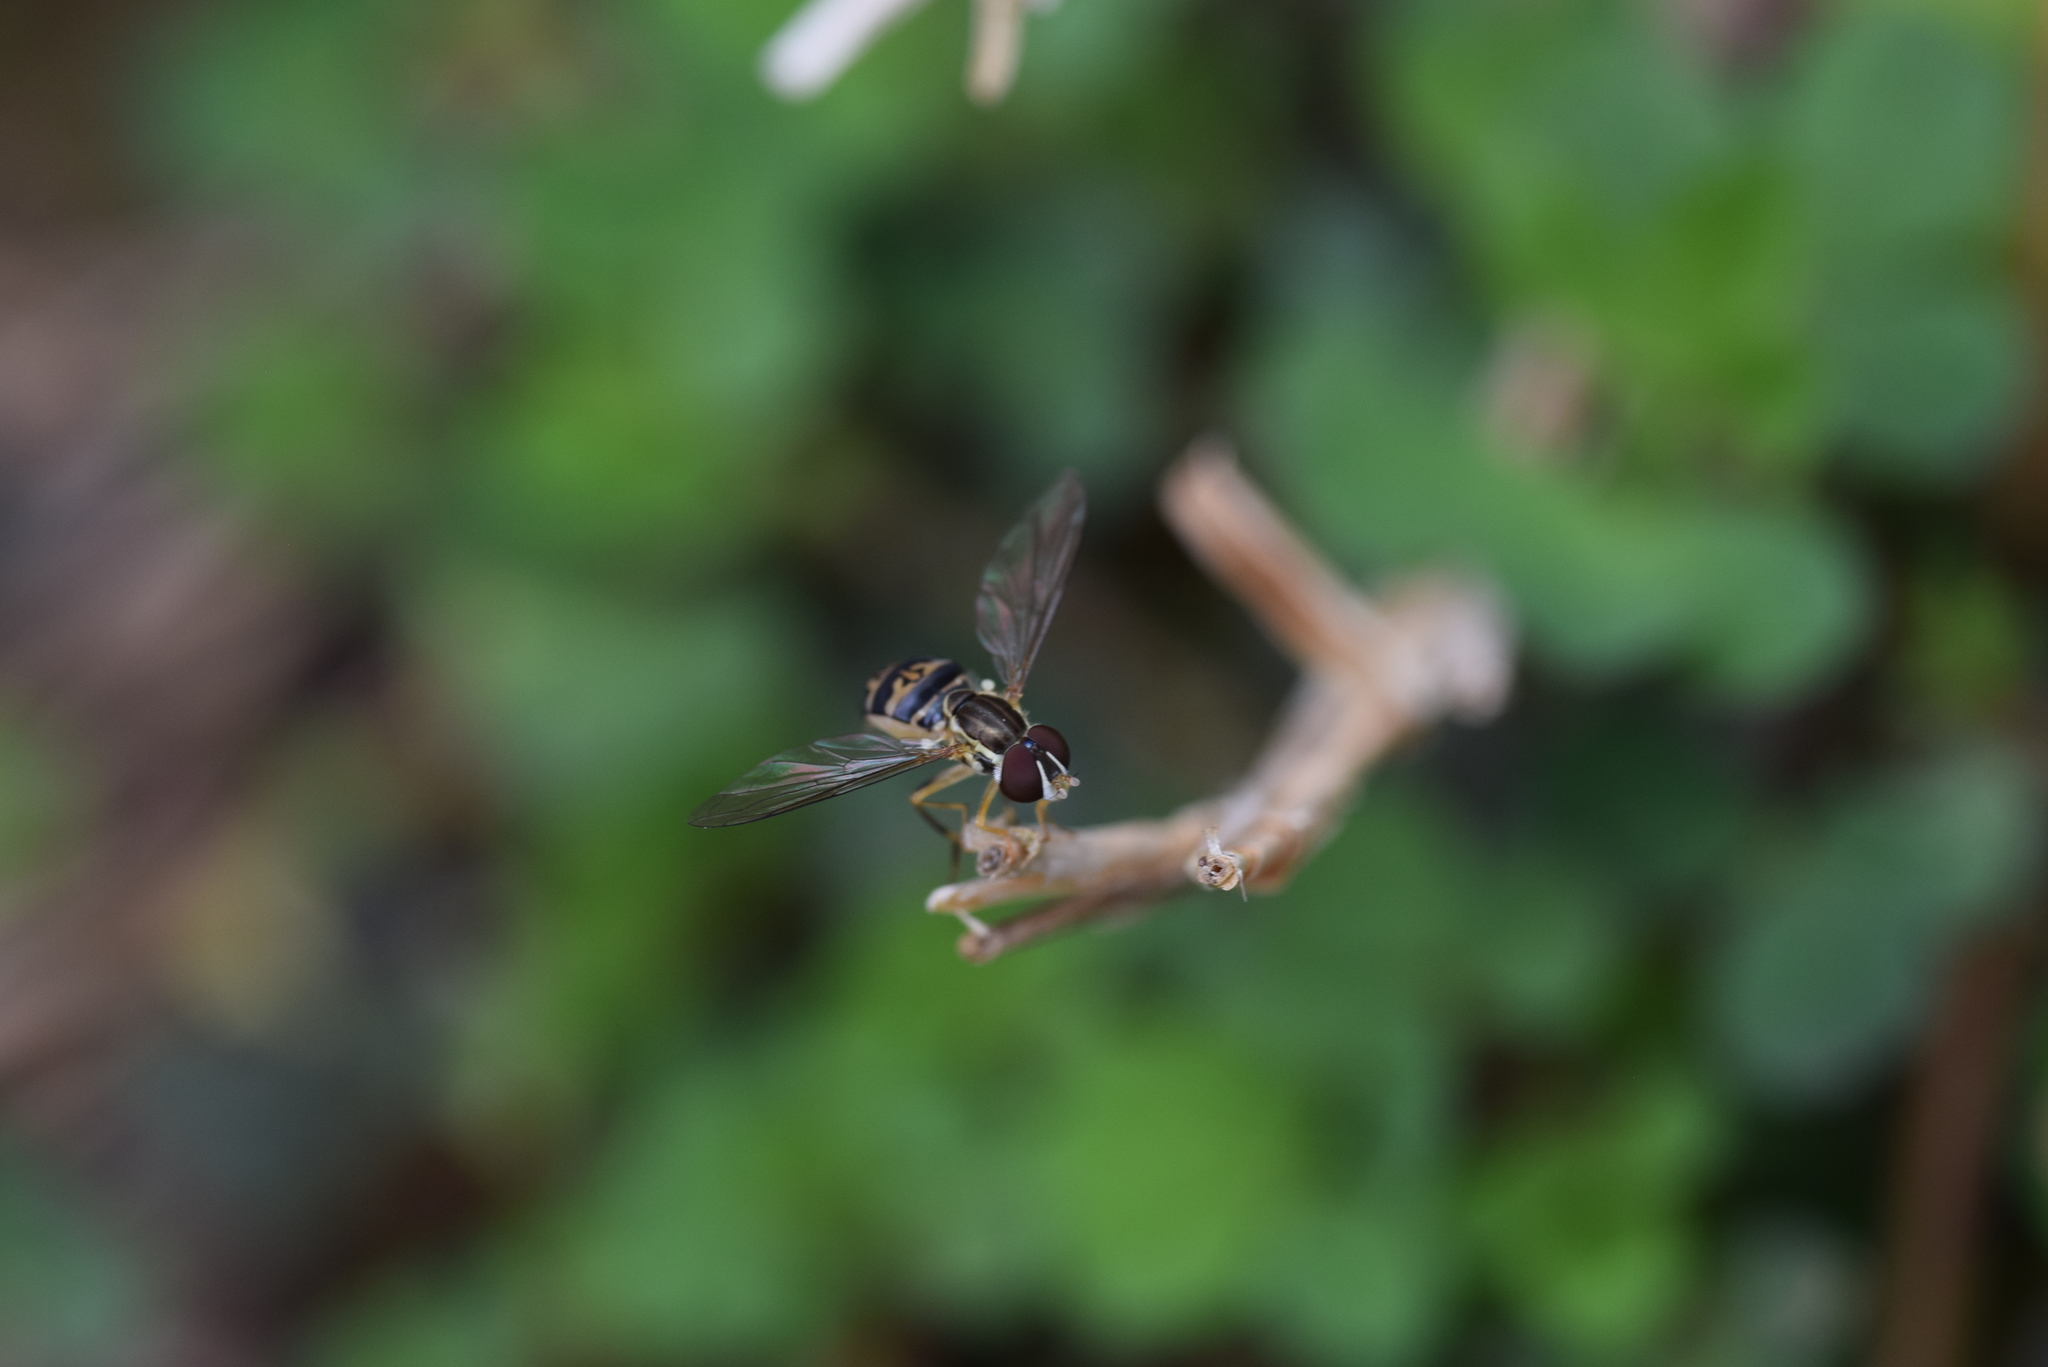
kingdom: Animalia
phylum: Arthropoda
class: Insecta
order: Diptera
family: Syrphidae
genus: Toxomerus
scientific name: Toxomerus geminatus
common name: Eastern calligrapher
